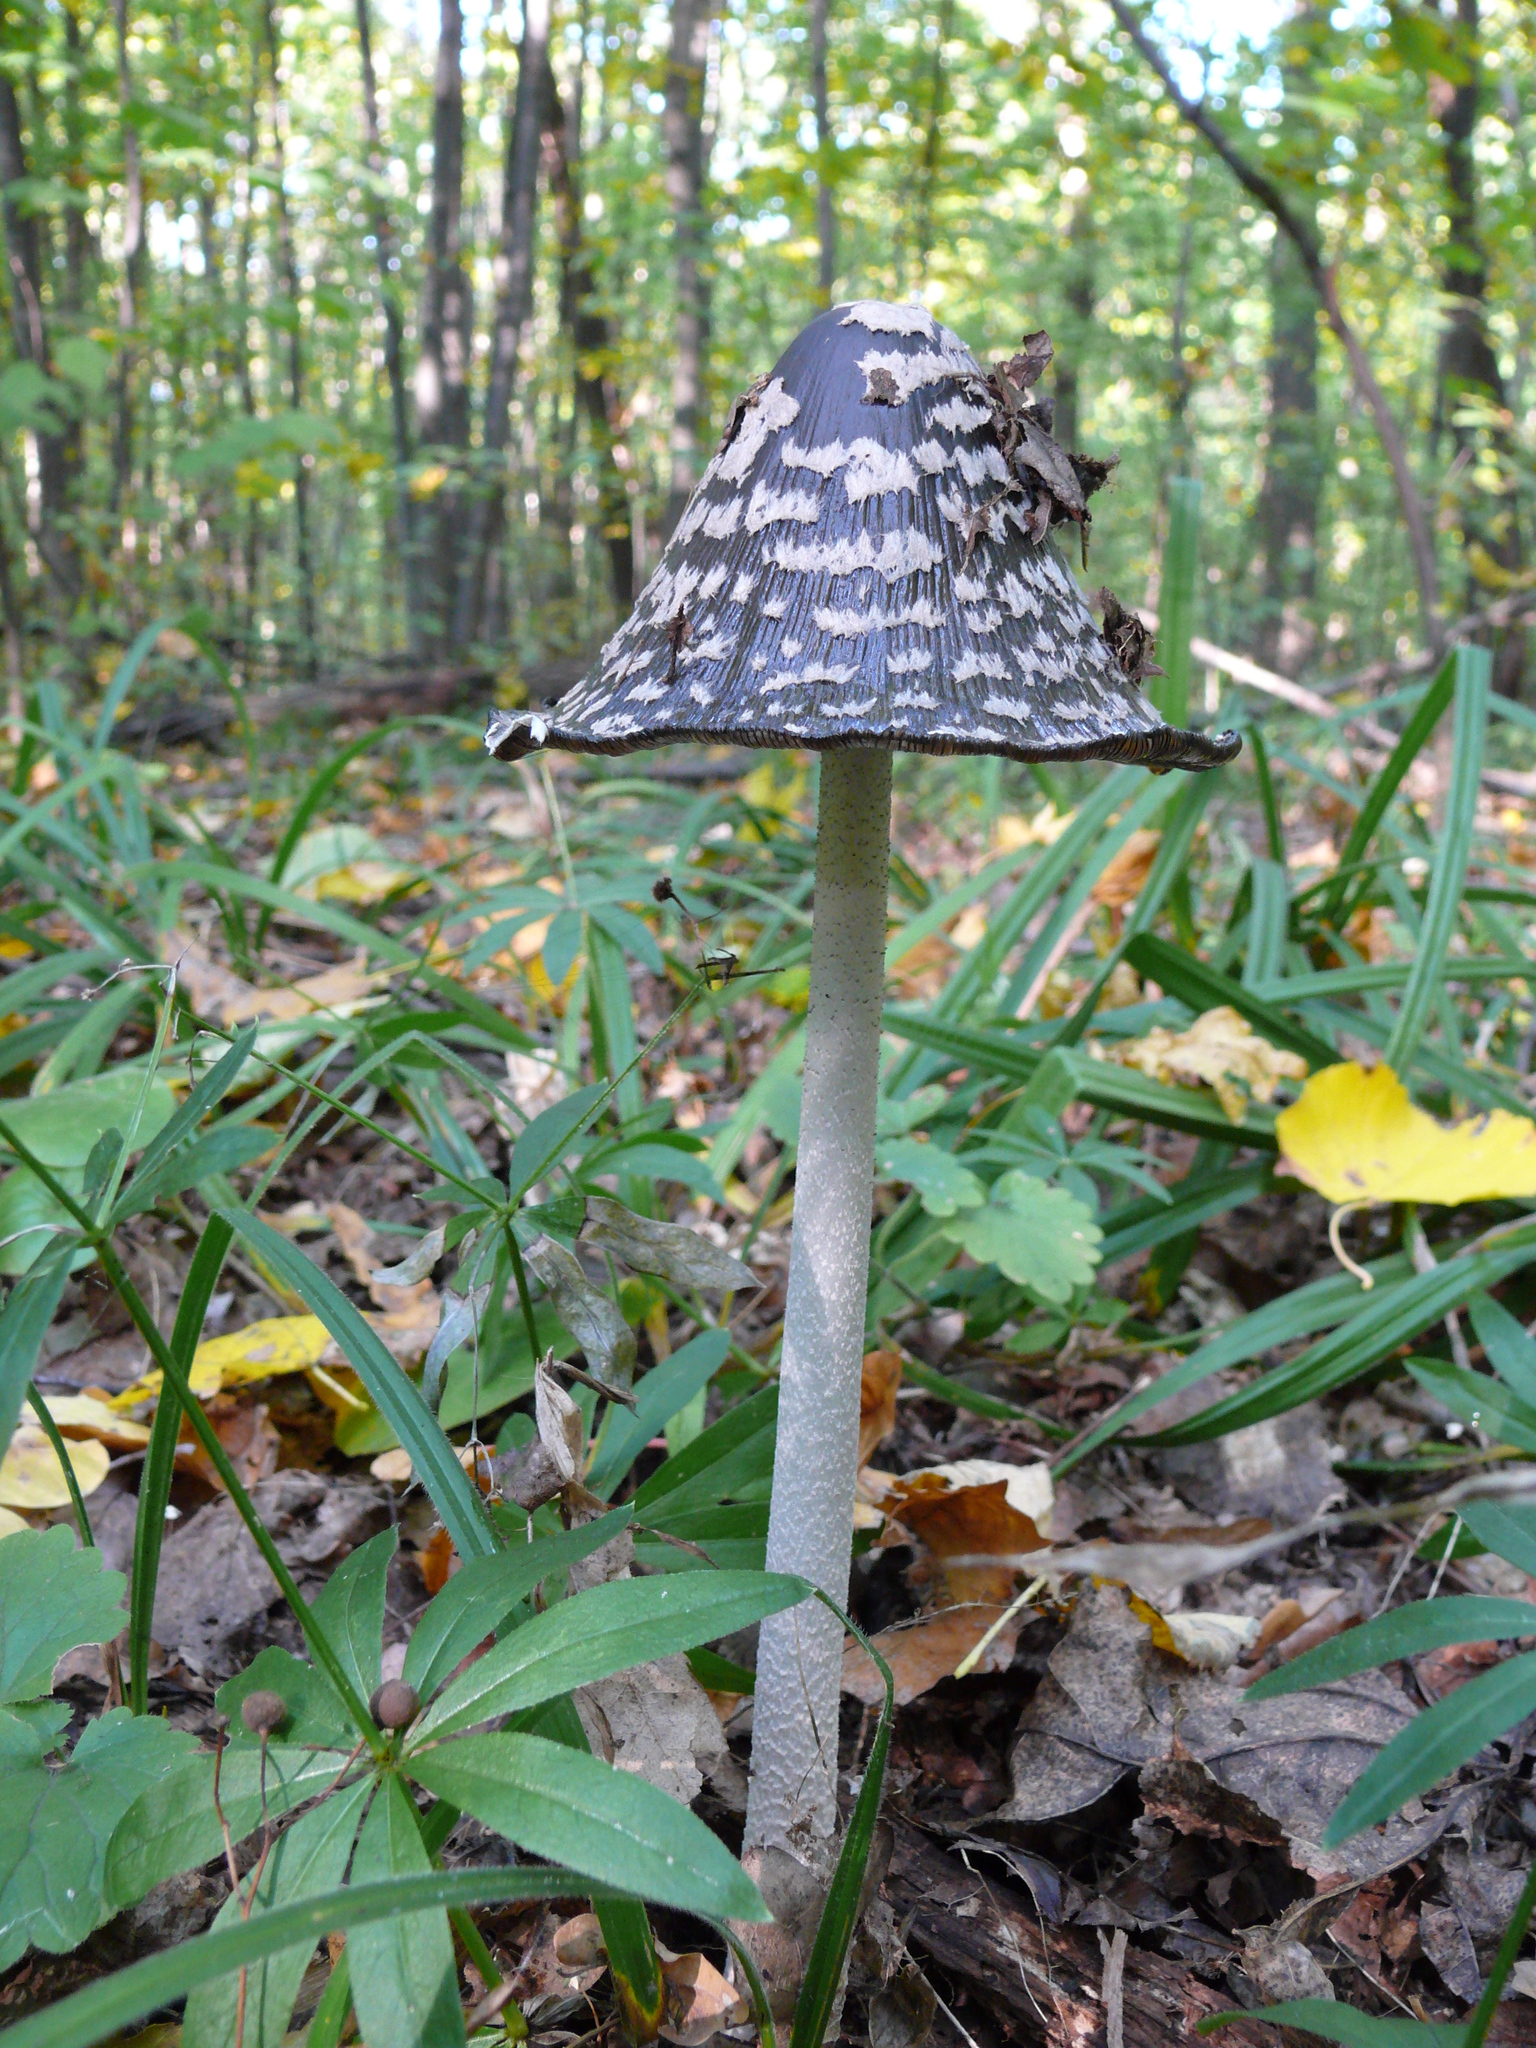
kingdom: Fungi
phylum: Basidiomycota
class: Agaricomycetes
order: Agaricales
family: Psathyrellaceae
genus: Coprinopsis
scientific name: Coprinopsis picacea
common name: Magpie inkcap
